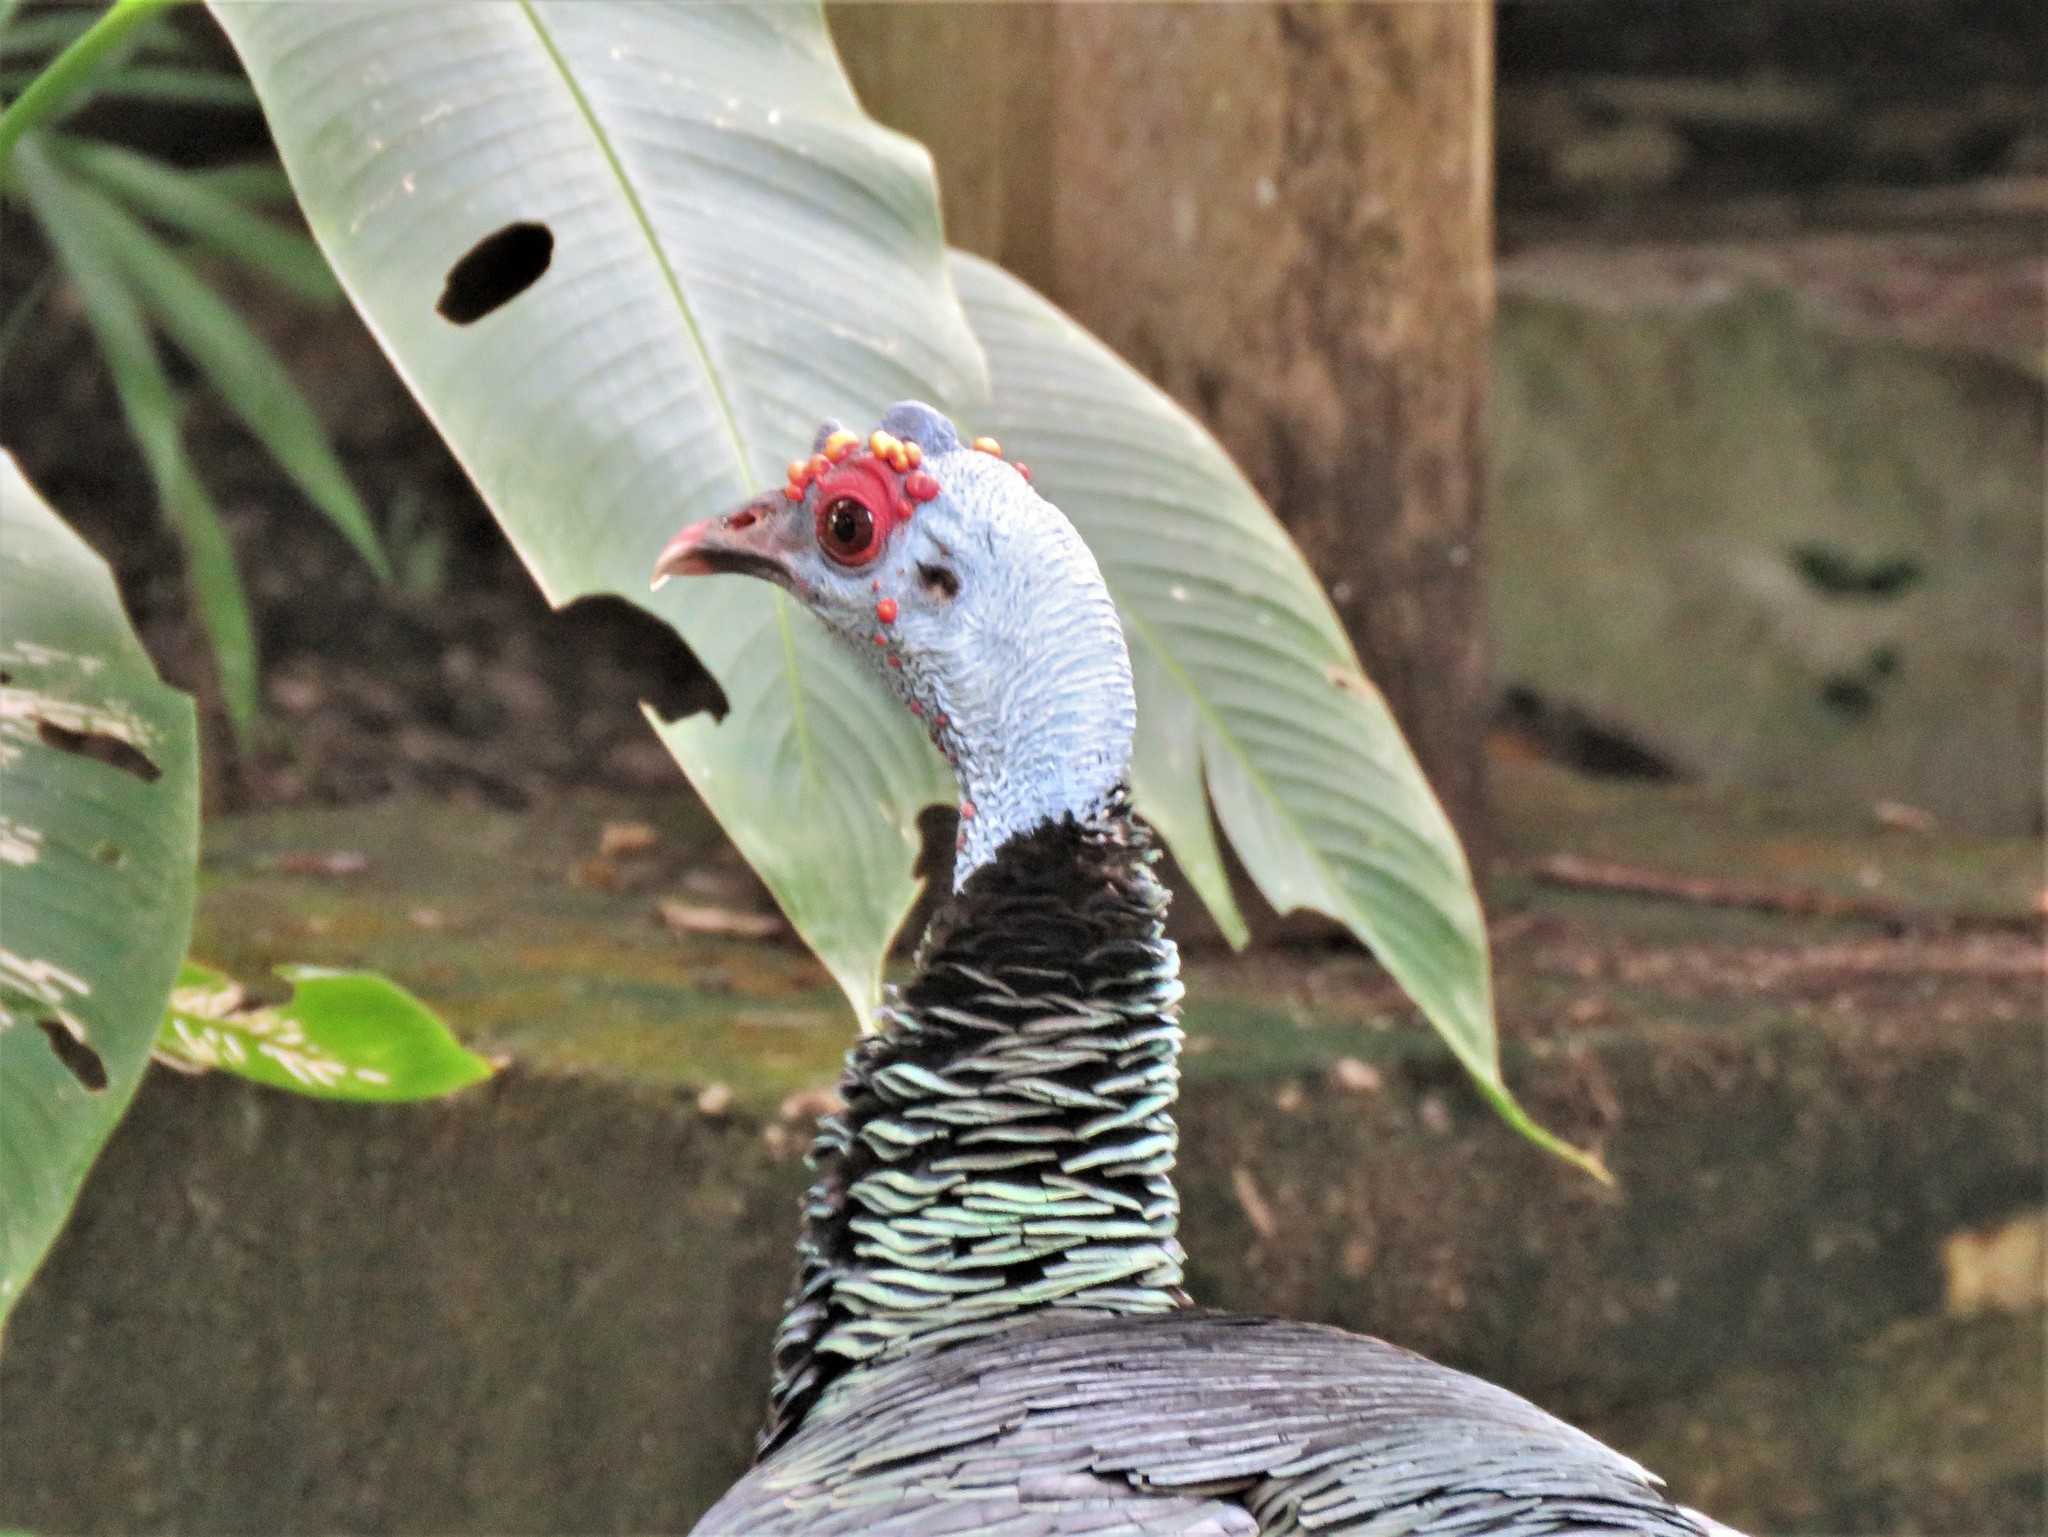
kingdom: Animalia
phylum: Chordata
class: Aves
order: Galliformes
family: Phasianidae
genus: Meleagris
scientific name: Meleagris ocellata
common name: Ocellated turkey
